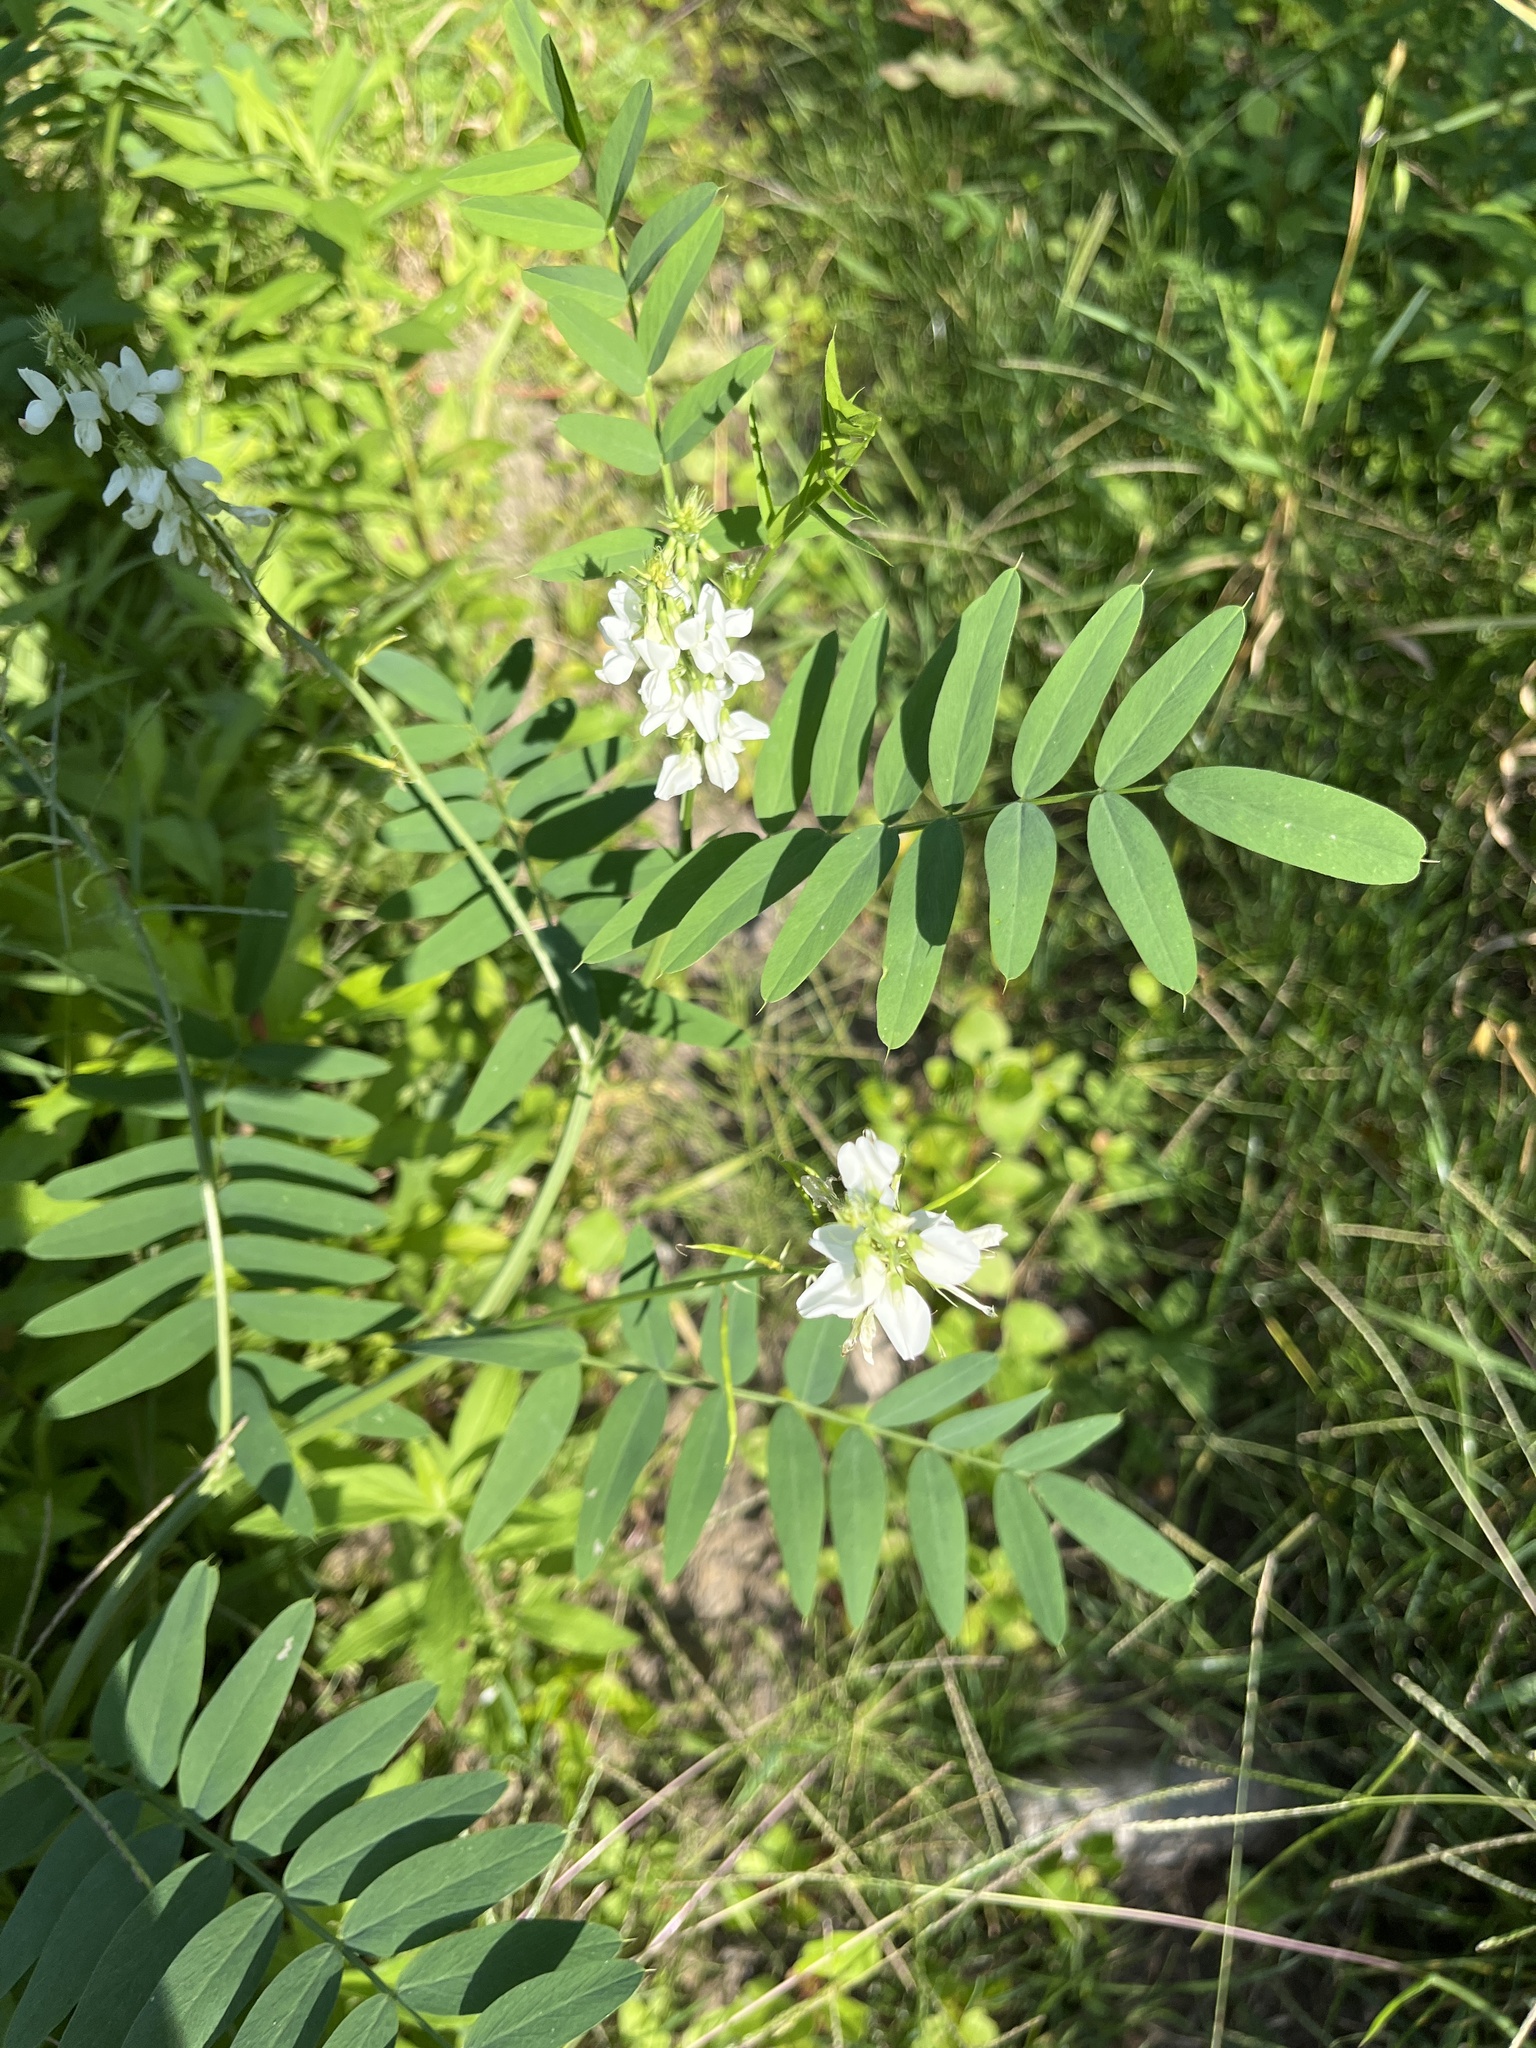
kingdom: Plantae
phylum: Tracheophyta
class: Magnoliopsida
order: Fabales
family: Fabaceae
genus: Melilotus
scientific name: Melilotus albus
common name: White melilot
